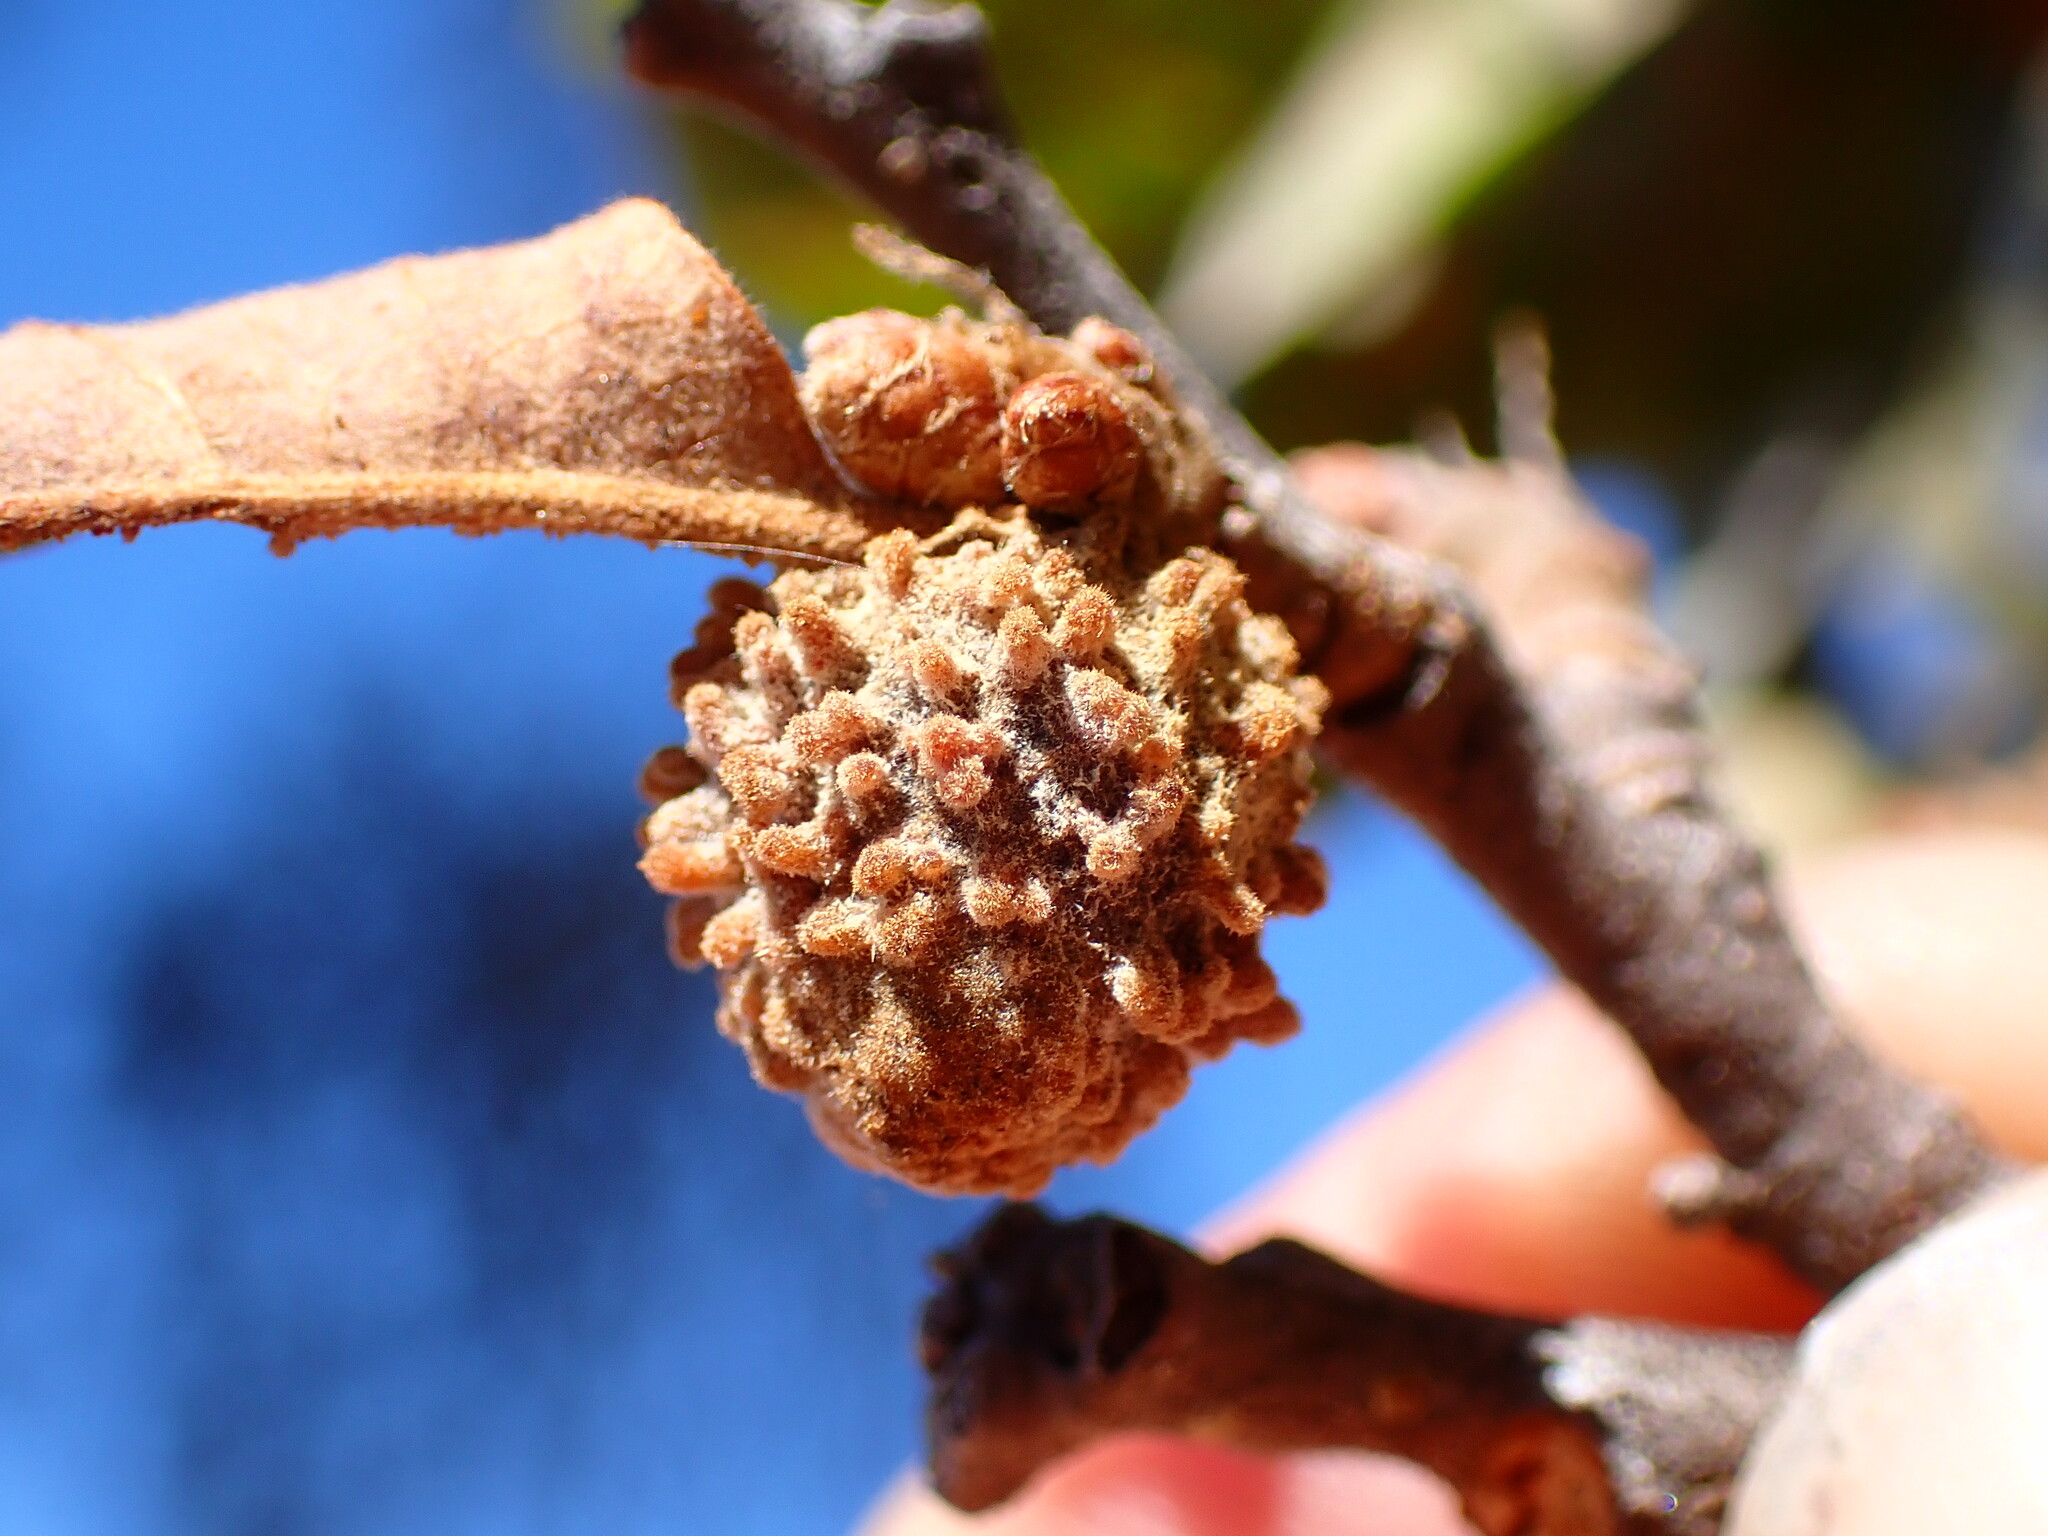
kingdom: Animalia
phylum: Arthropoda
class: Insecta
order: Hymenoptera
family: Cynipidae
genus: Burnettweldia
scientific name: Burnettweldia
